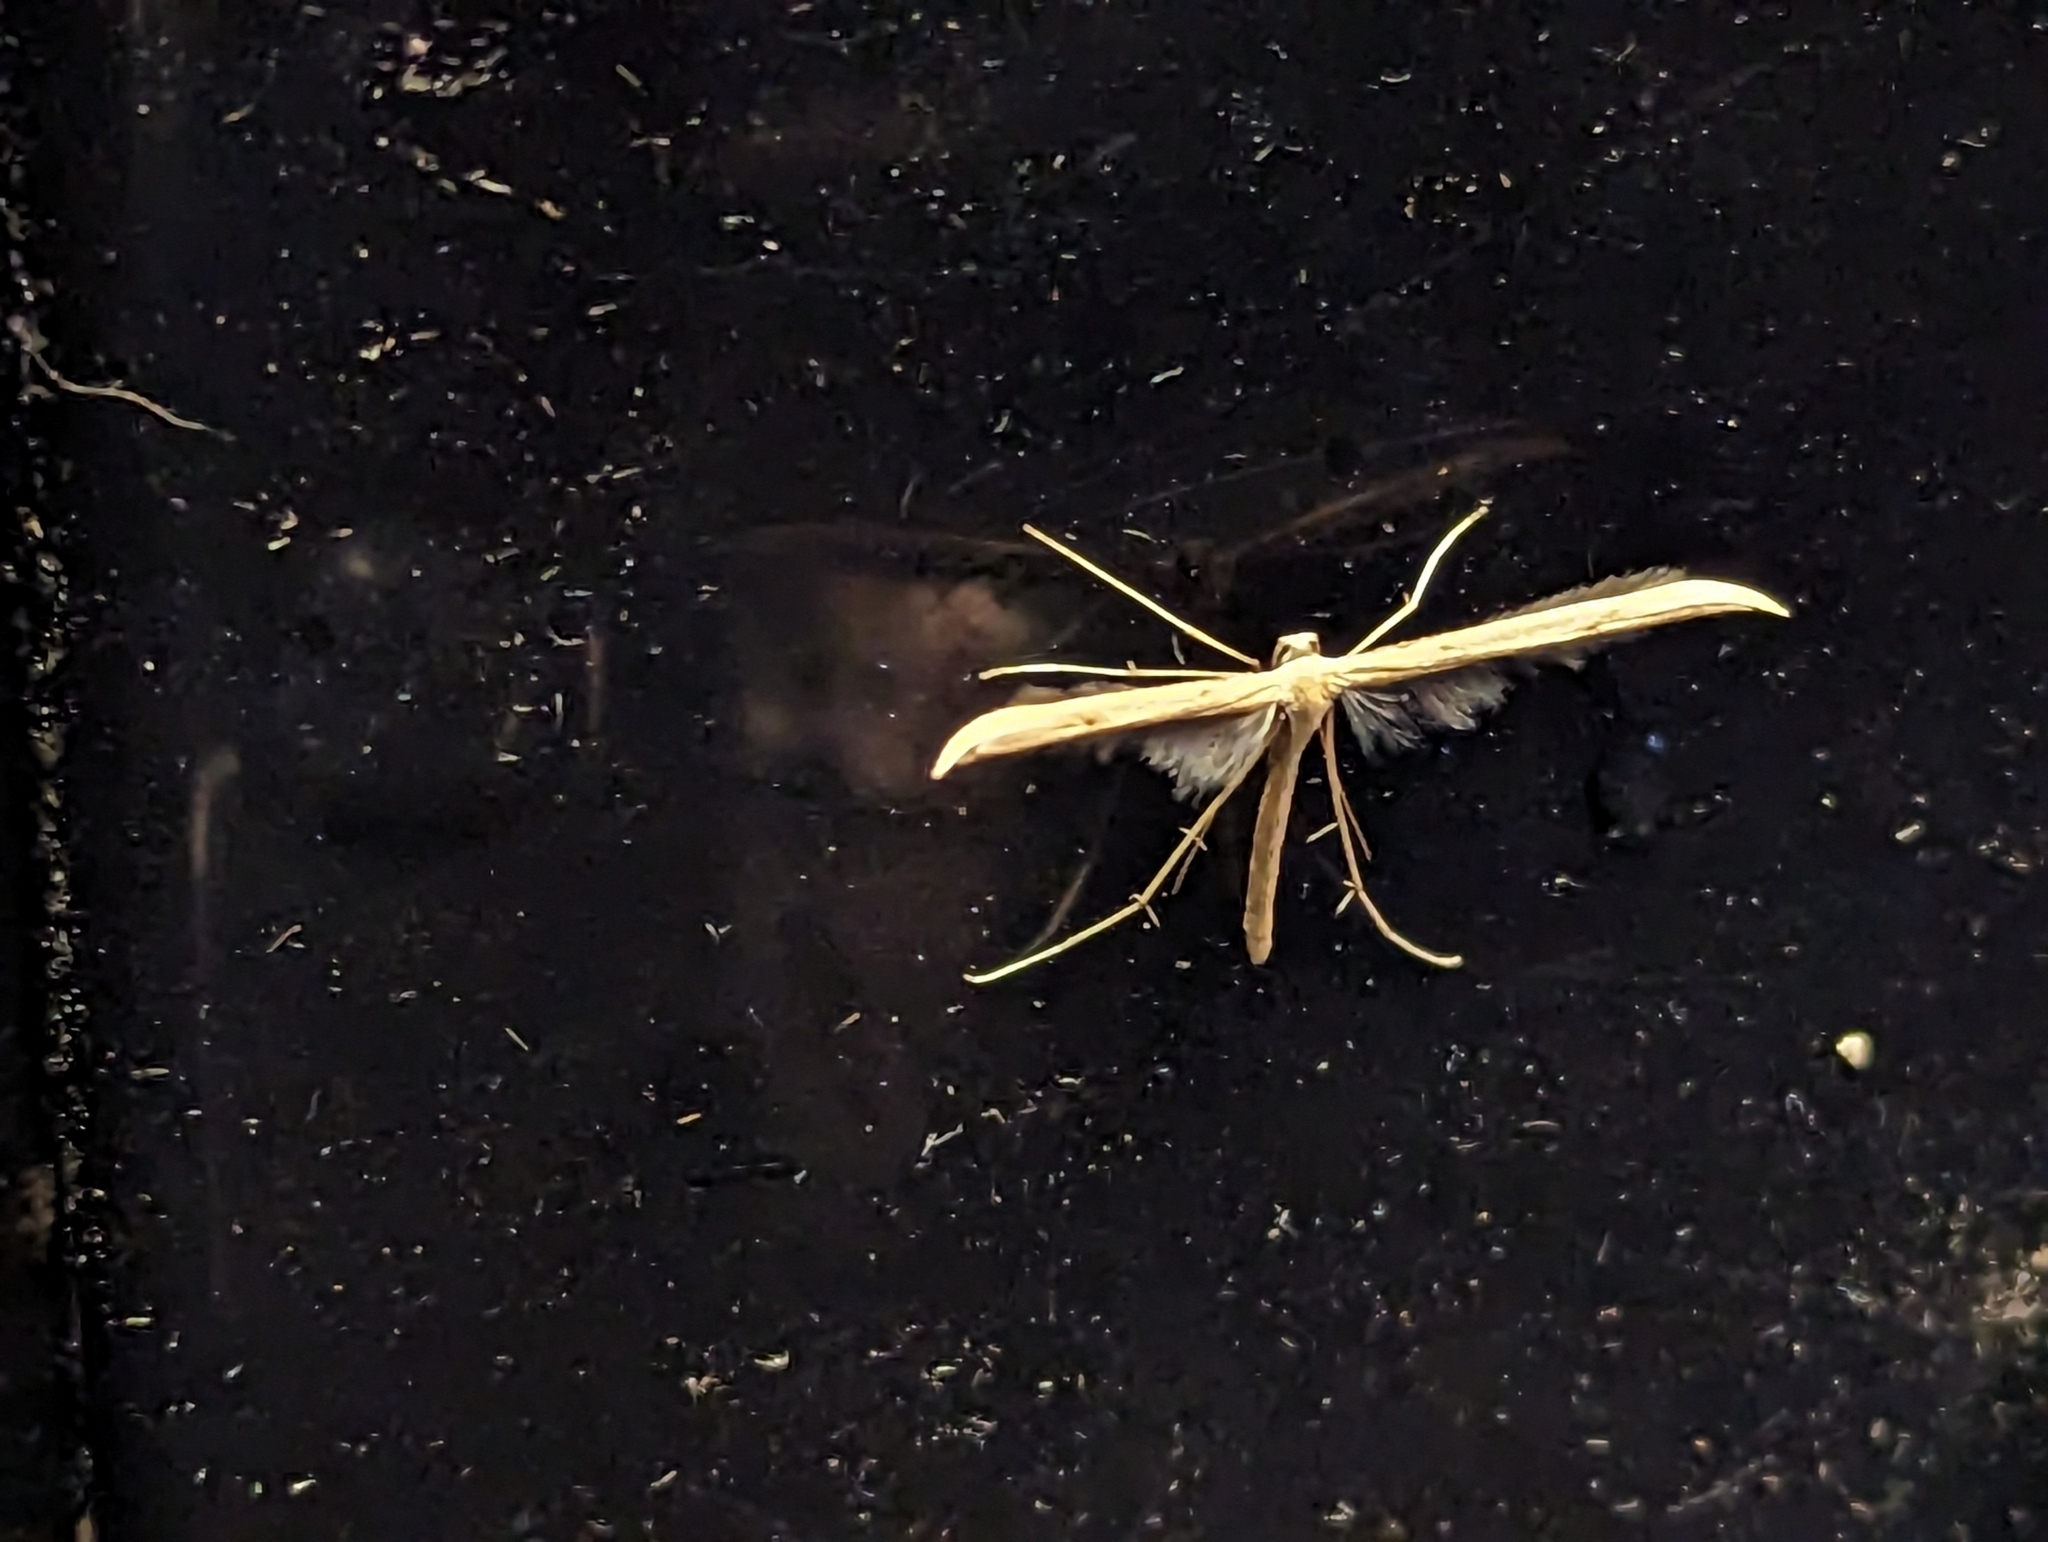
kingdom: Animalia
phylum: Arthropoda
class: Insecta
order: Lepidoptera
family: Pterophoridae
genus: Emmelina
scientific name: Emmelina monodactyla
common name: Common plume
